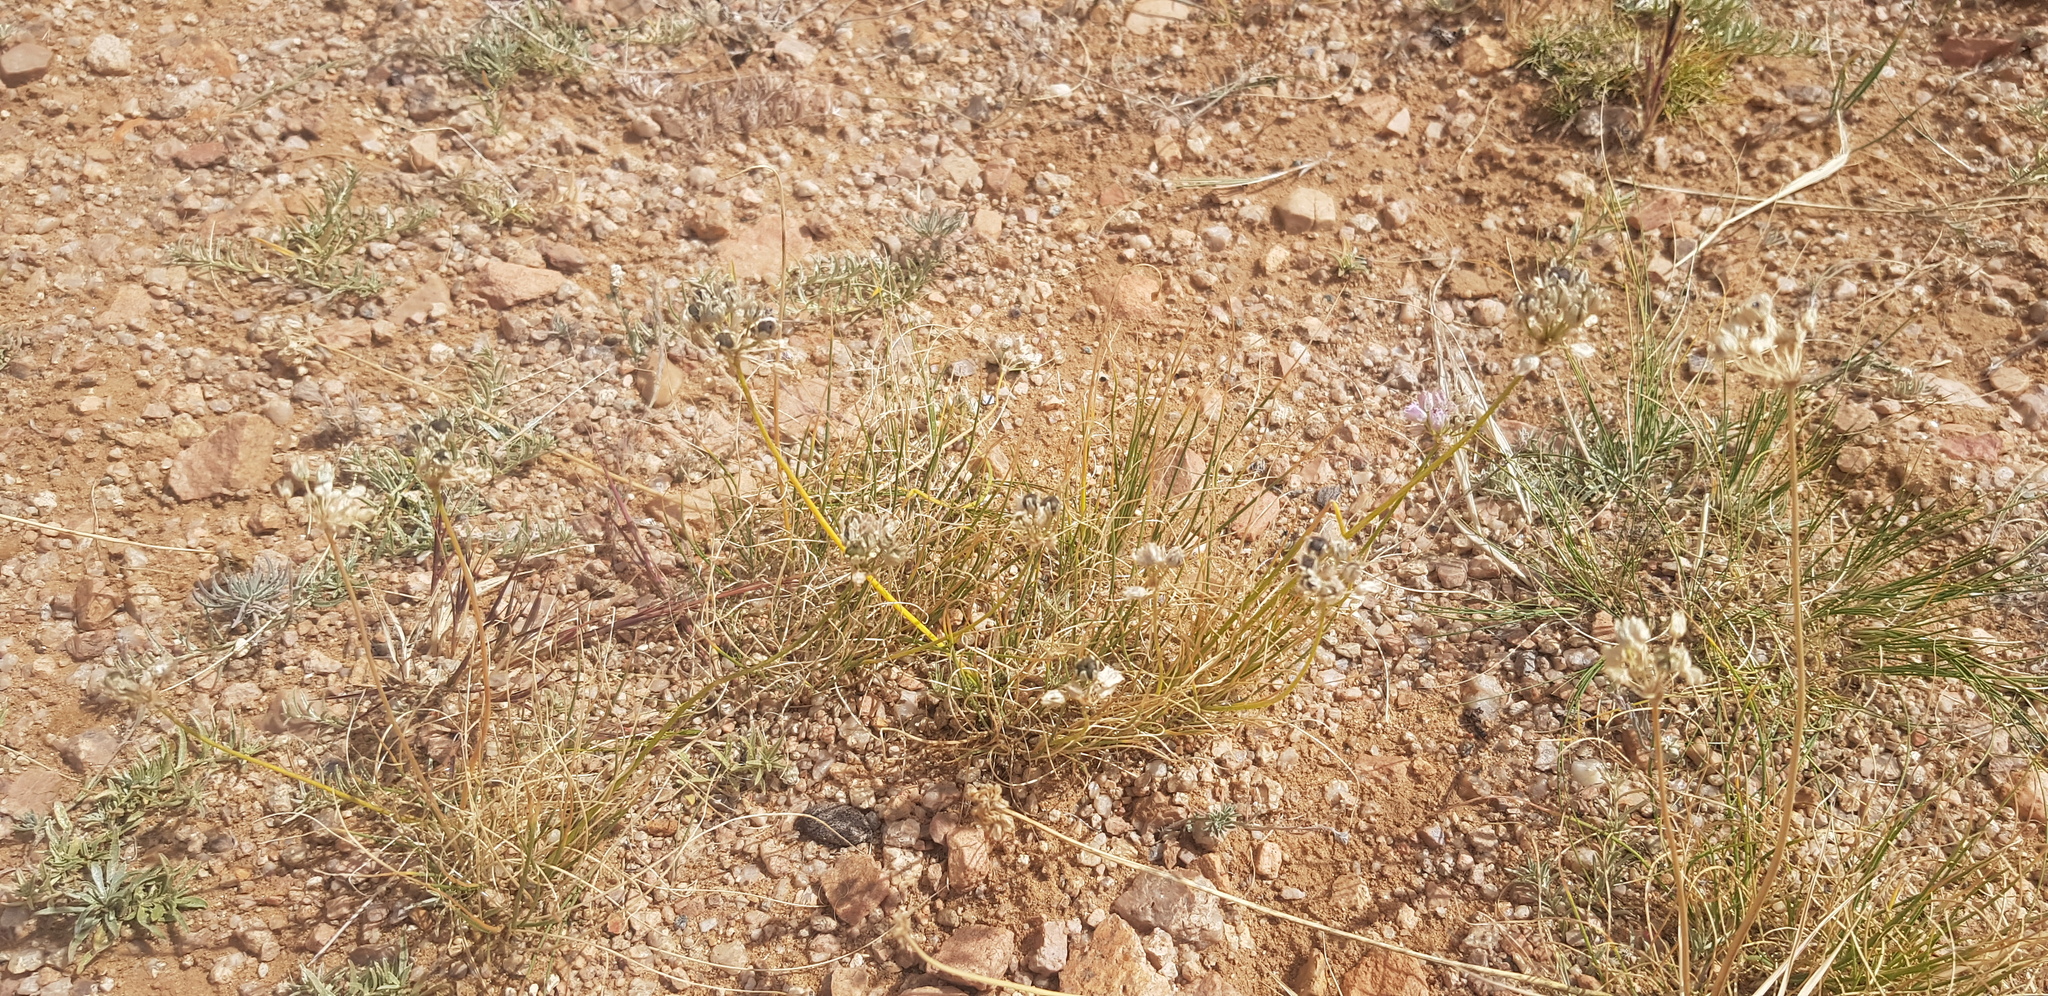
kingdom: Plantae
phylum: Tracheophyta
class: Liliopsida
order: Asparagales
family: Amaryllidaceae
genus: Allium
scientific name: Allium polyrhizum
